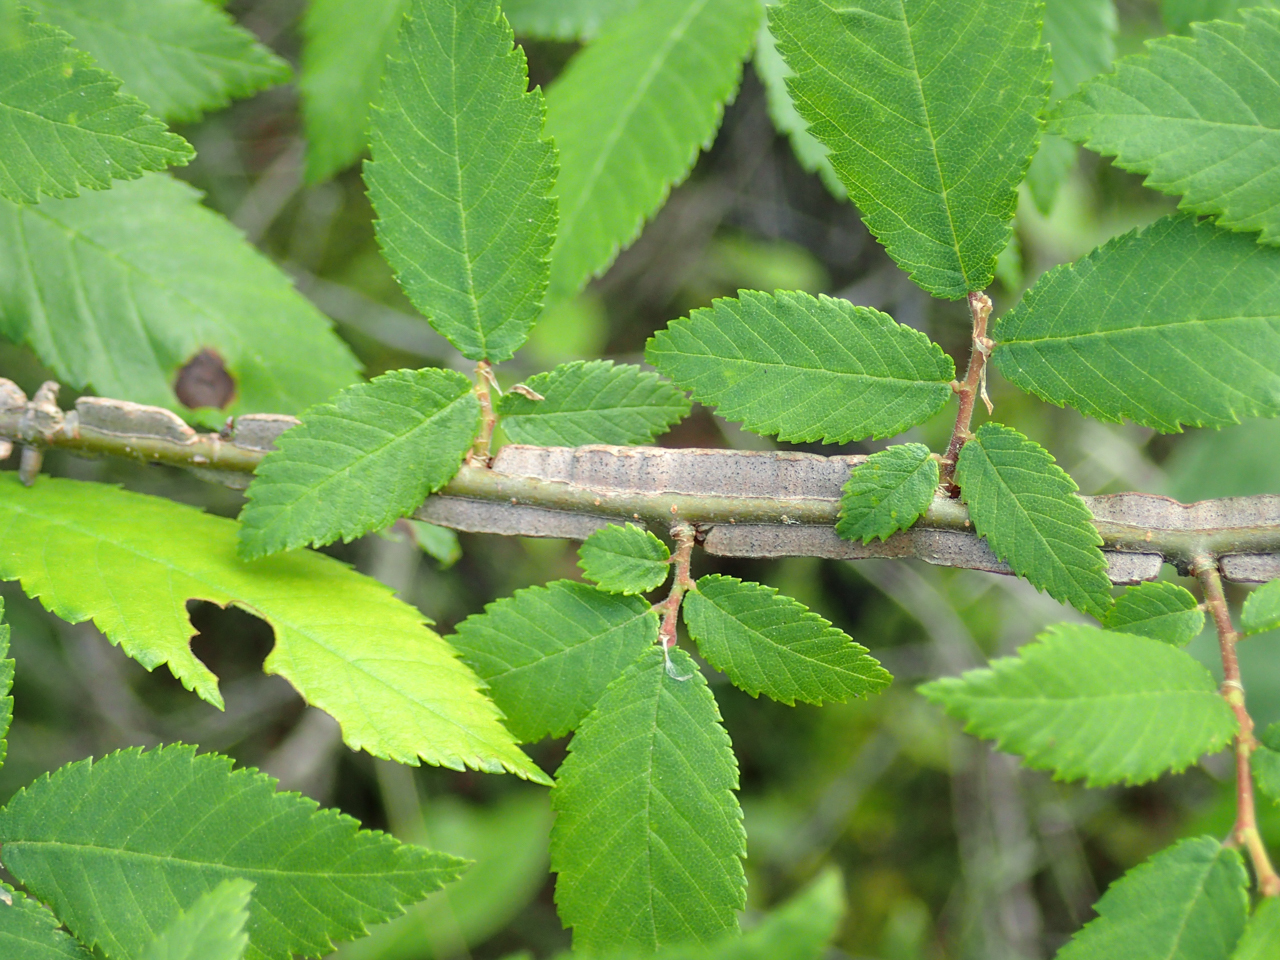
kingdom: Plantae
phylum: Tracheophyta
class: Magnoliopsida
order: Rosales
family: Ulmaceae
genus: Ulmus
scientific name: Ulmus alata
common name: Winged elm
